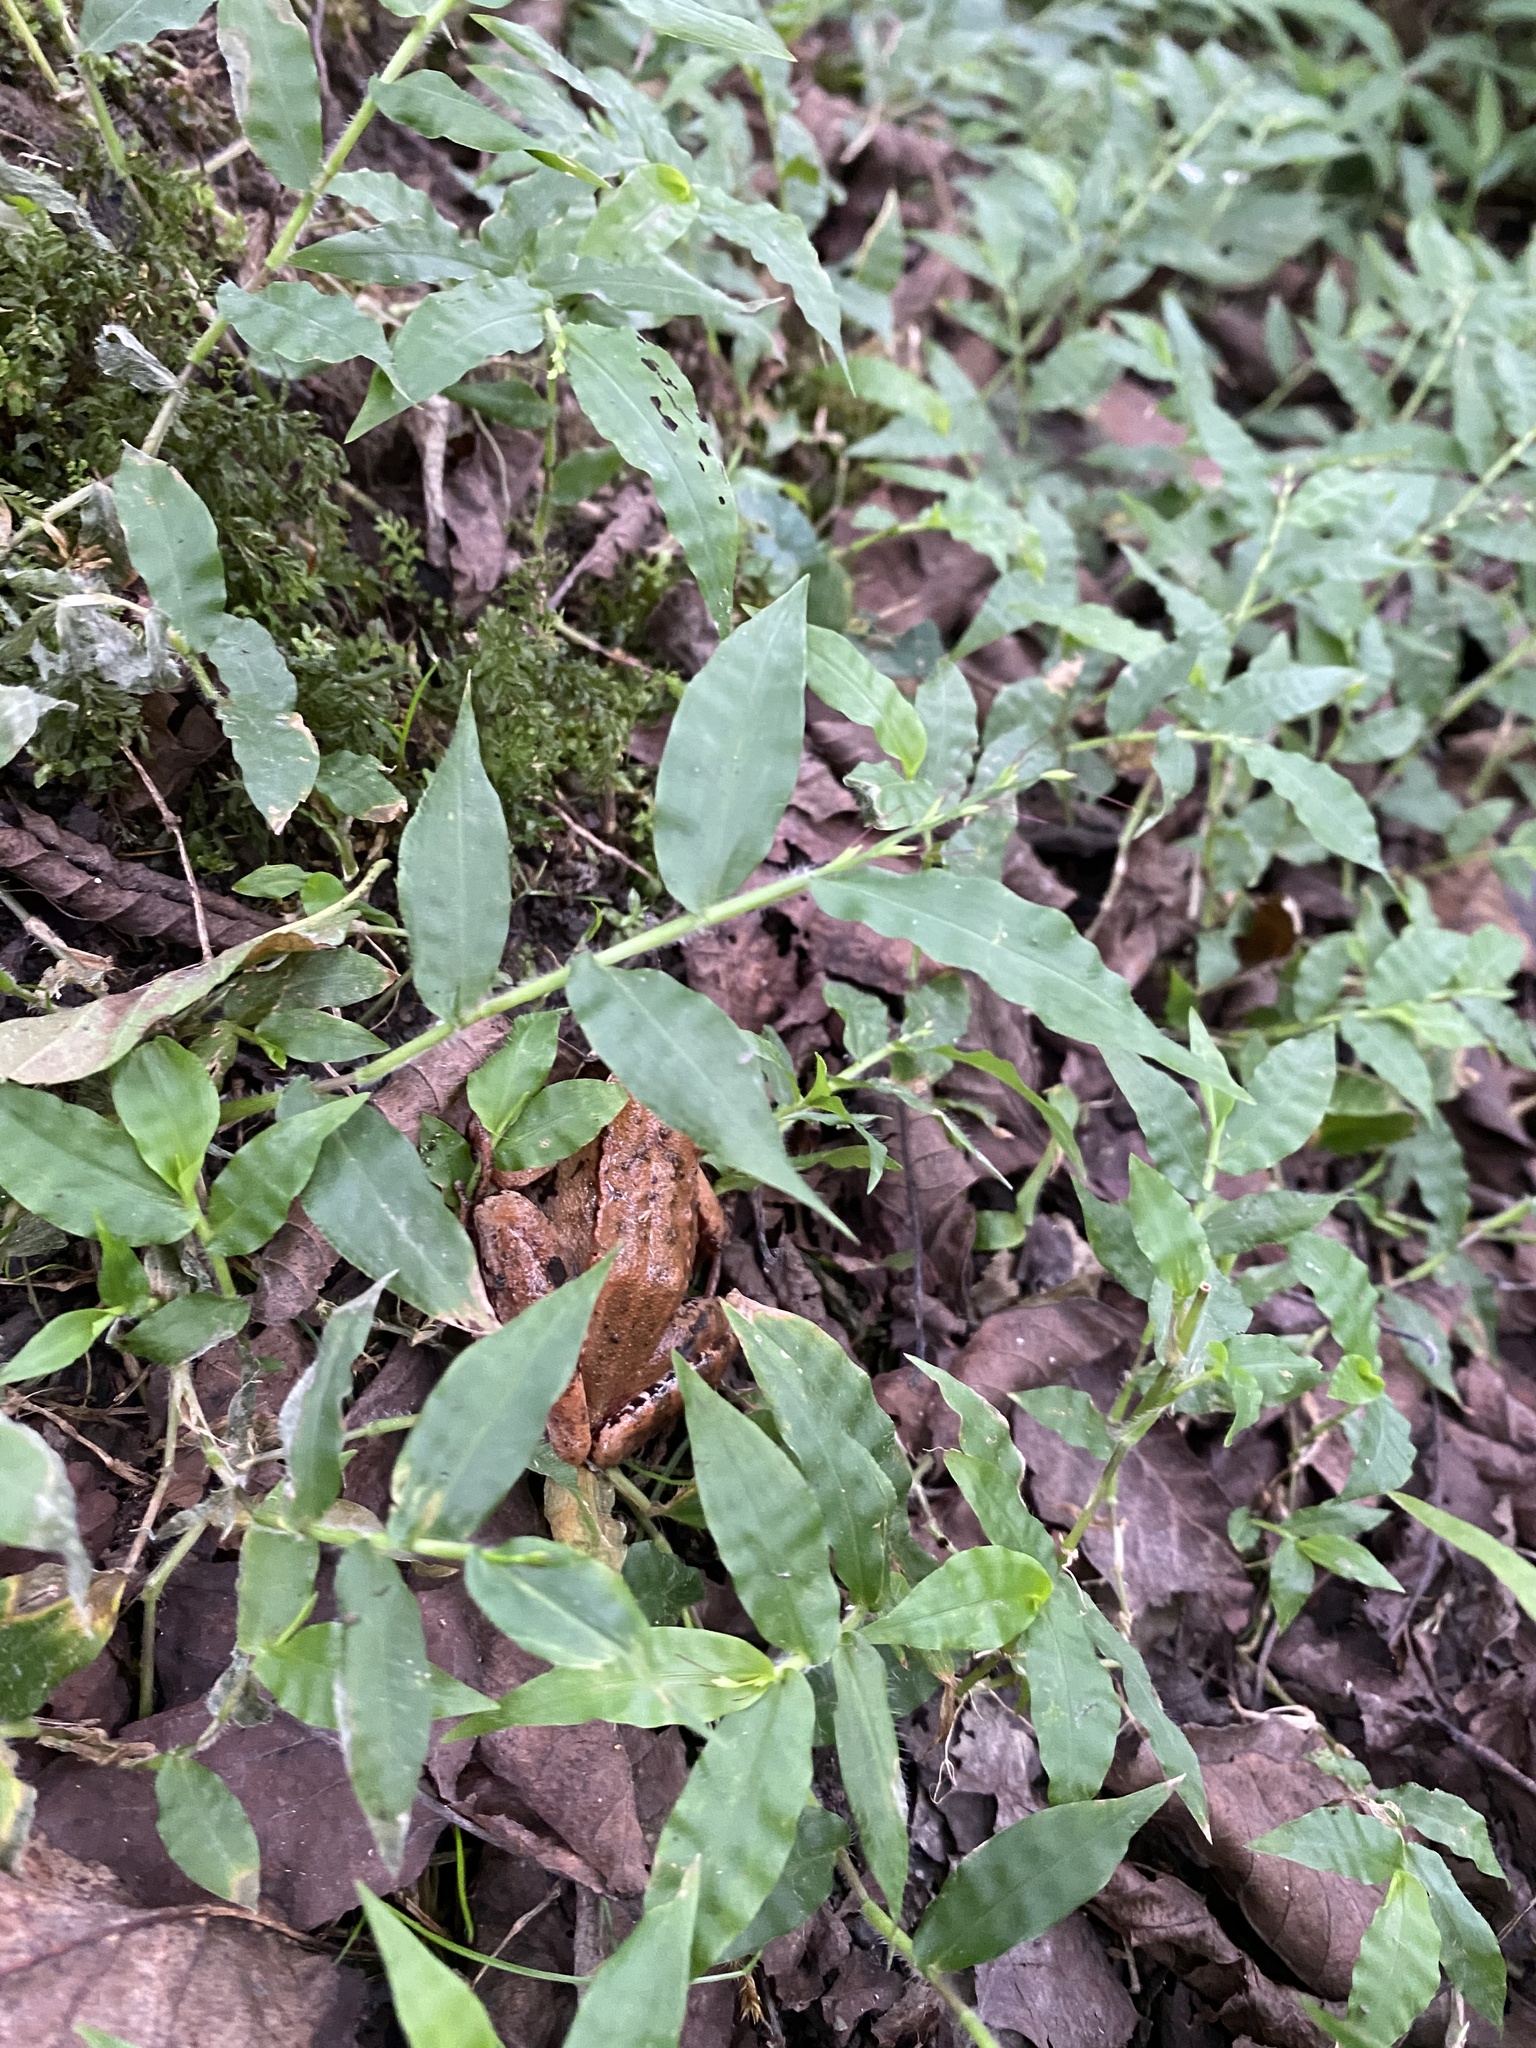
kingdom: Animalia
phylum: Chordata
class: Amphibia
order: Anura
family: Ranidae
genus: Rana
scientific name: Rana pseudodalmatina
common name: Hyrcanian frog
